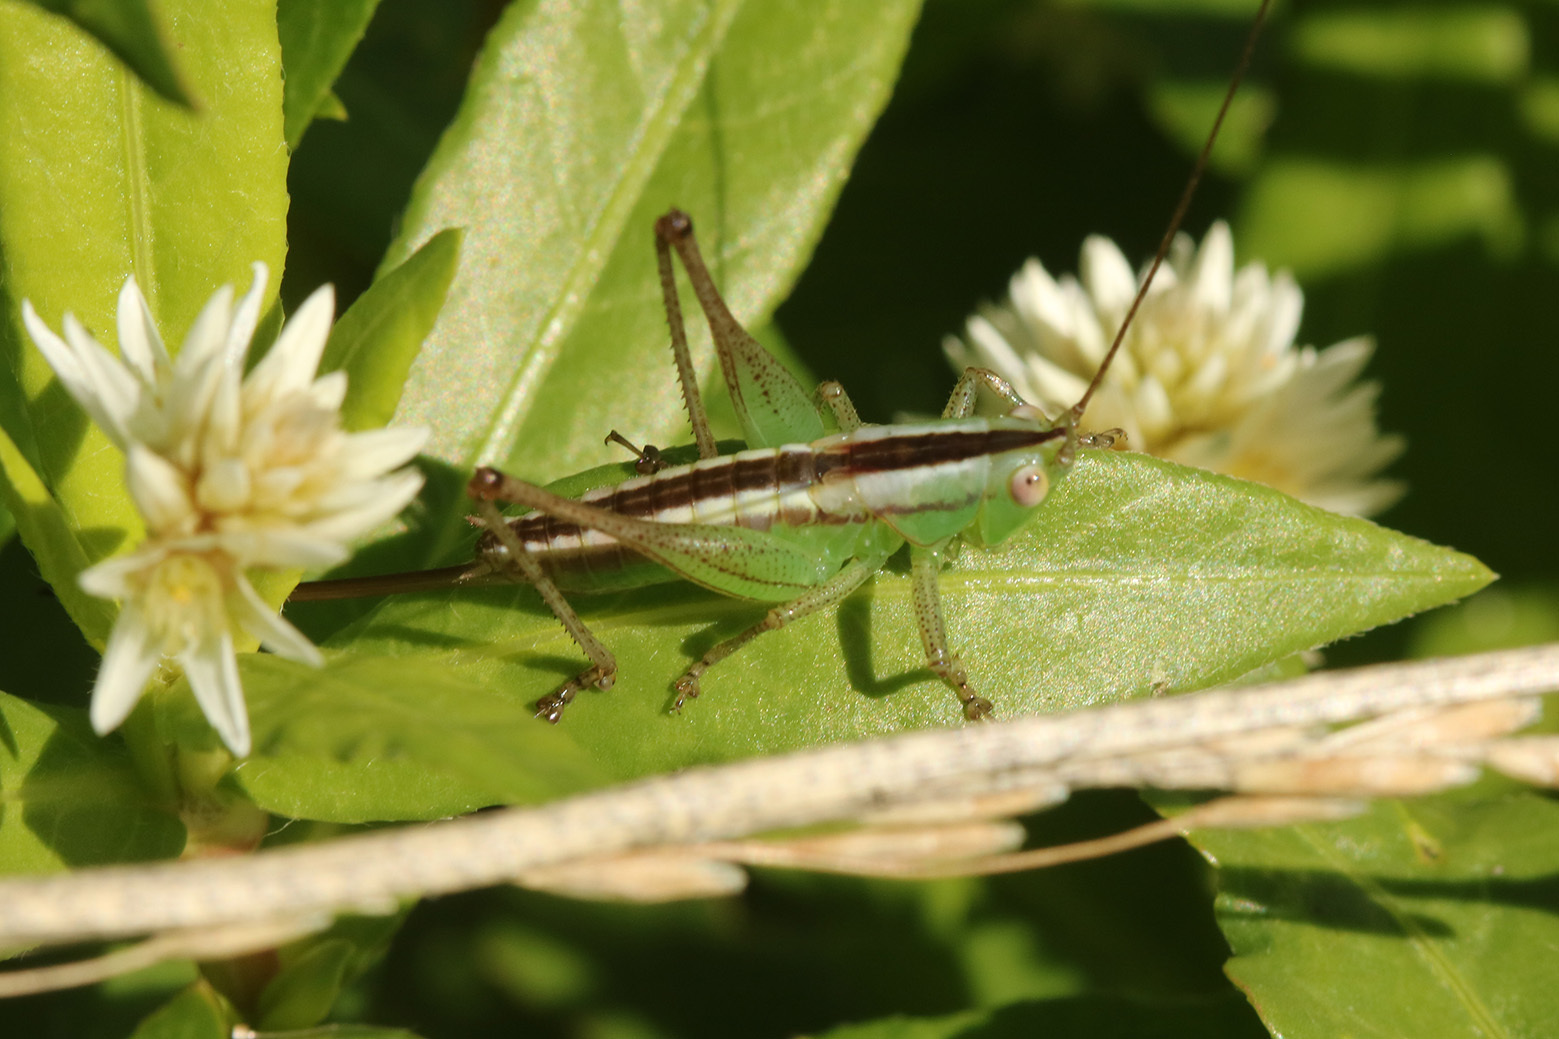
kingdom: Animalia
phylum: Arthropoda
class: Insecta
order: Orthoptera
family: Tettigoniidae
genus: Conocephalus
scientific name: Conocephalus doryphorus
